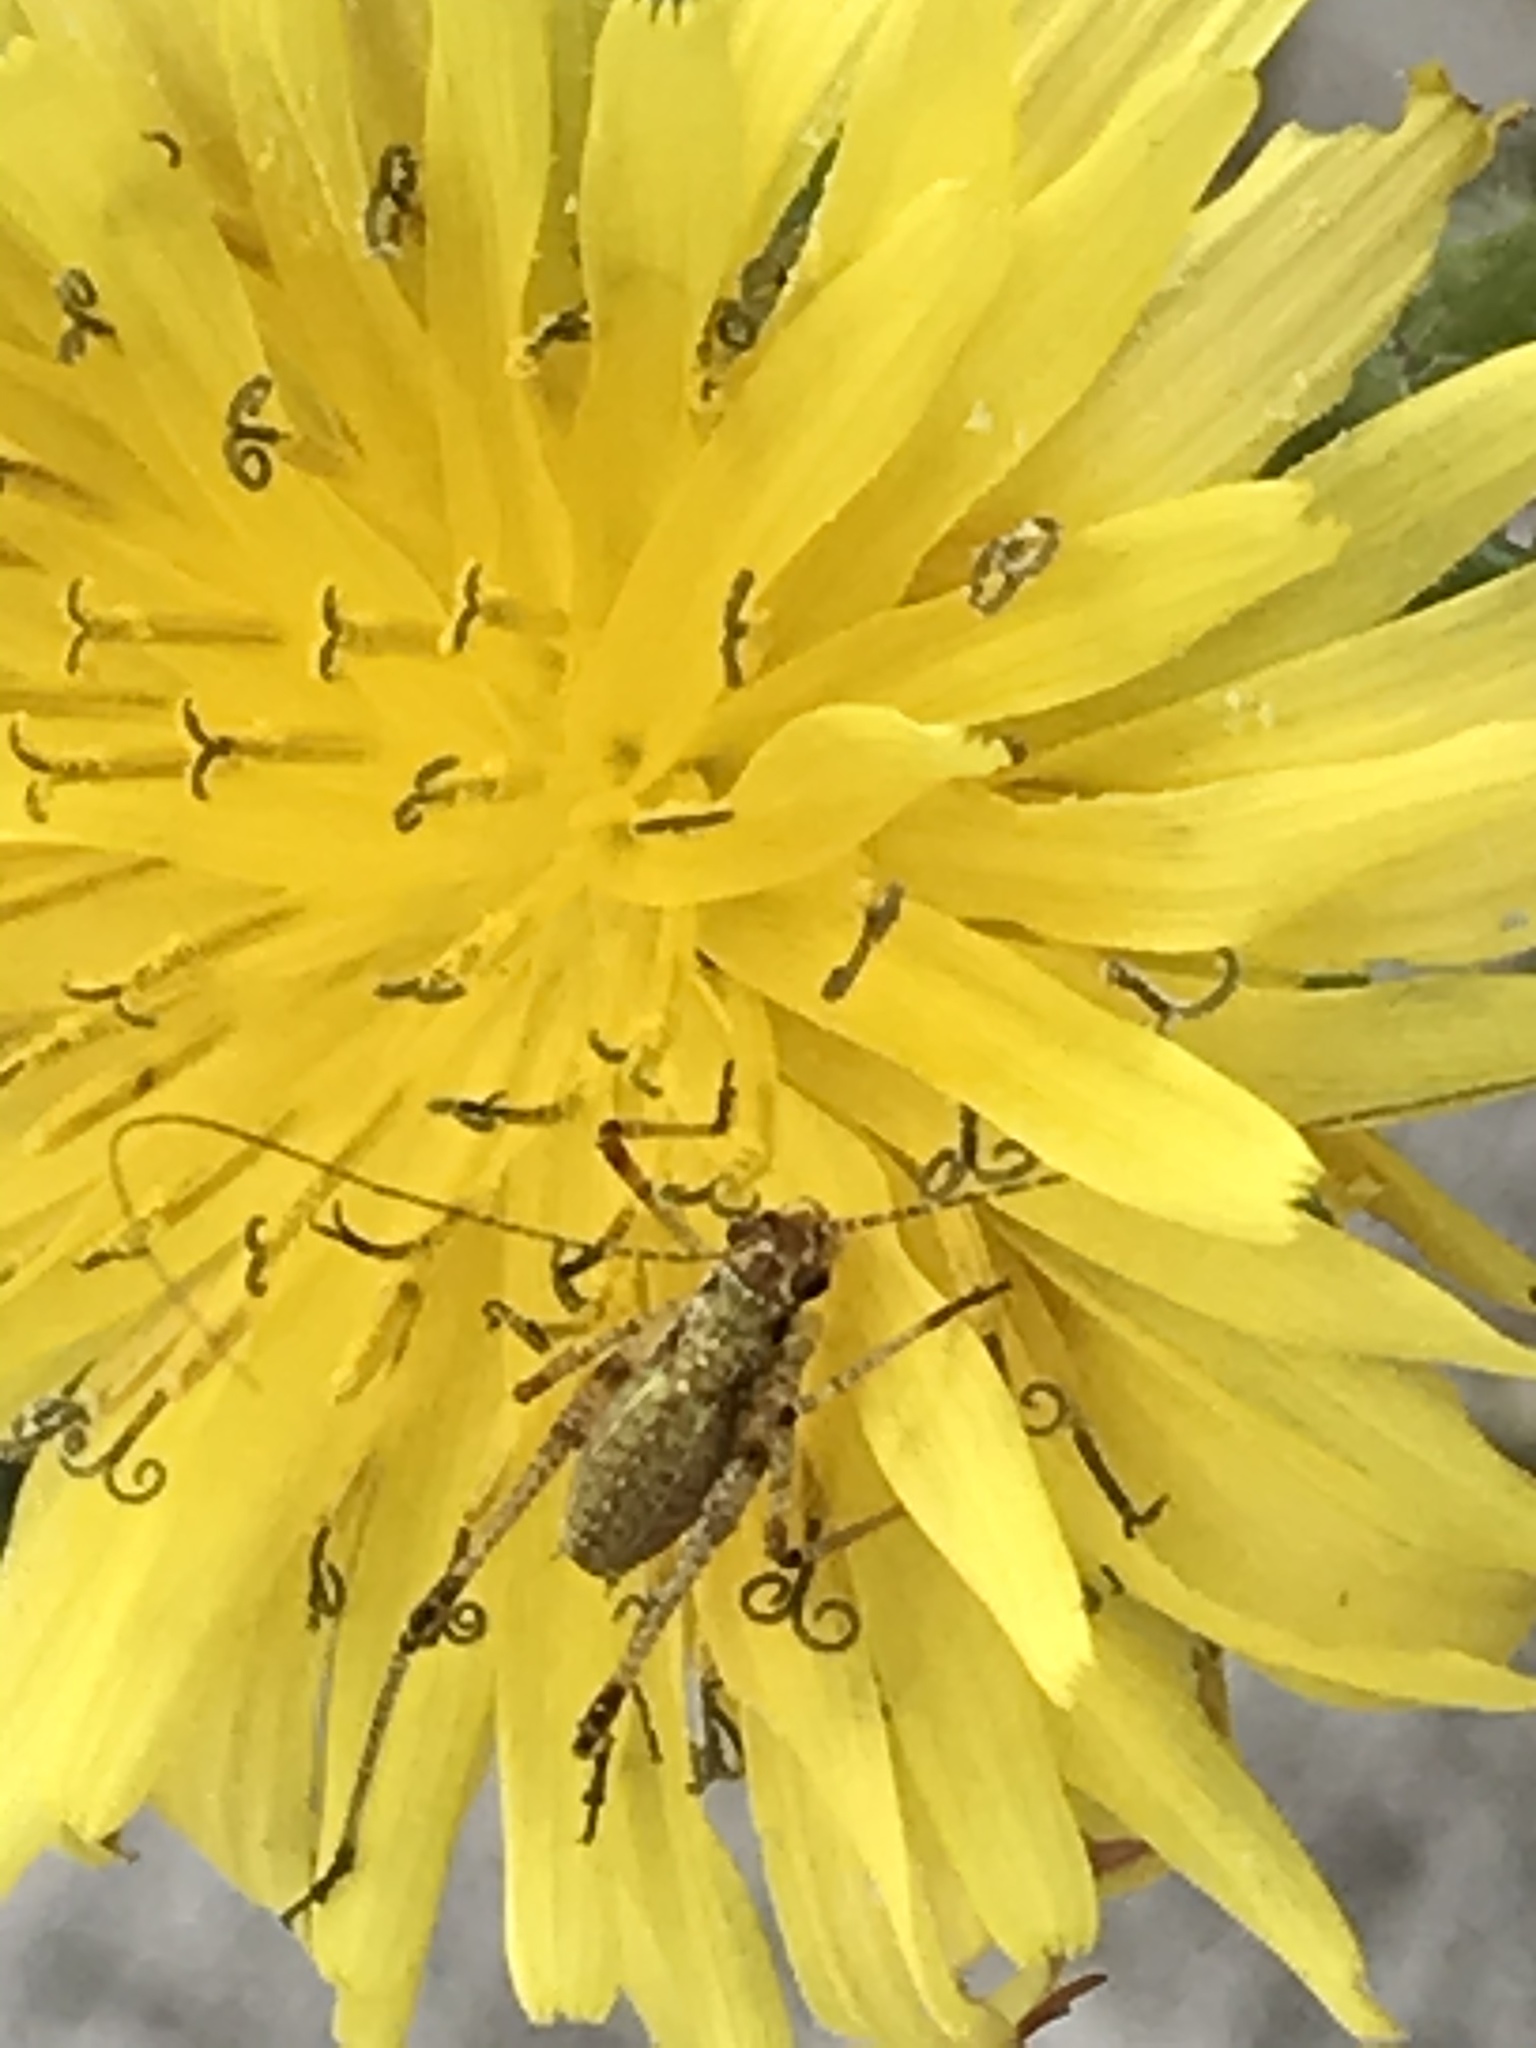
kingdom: Animalia
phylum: Arthropoda
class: Insecta
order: Orthoptera
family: Tettigoniidae
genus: Phaneroptera
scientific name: Phaneroptera nana
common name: Southern sickle bush-cricket
